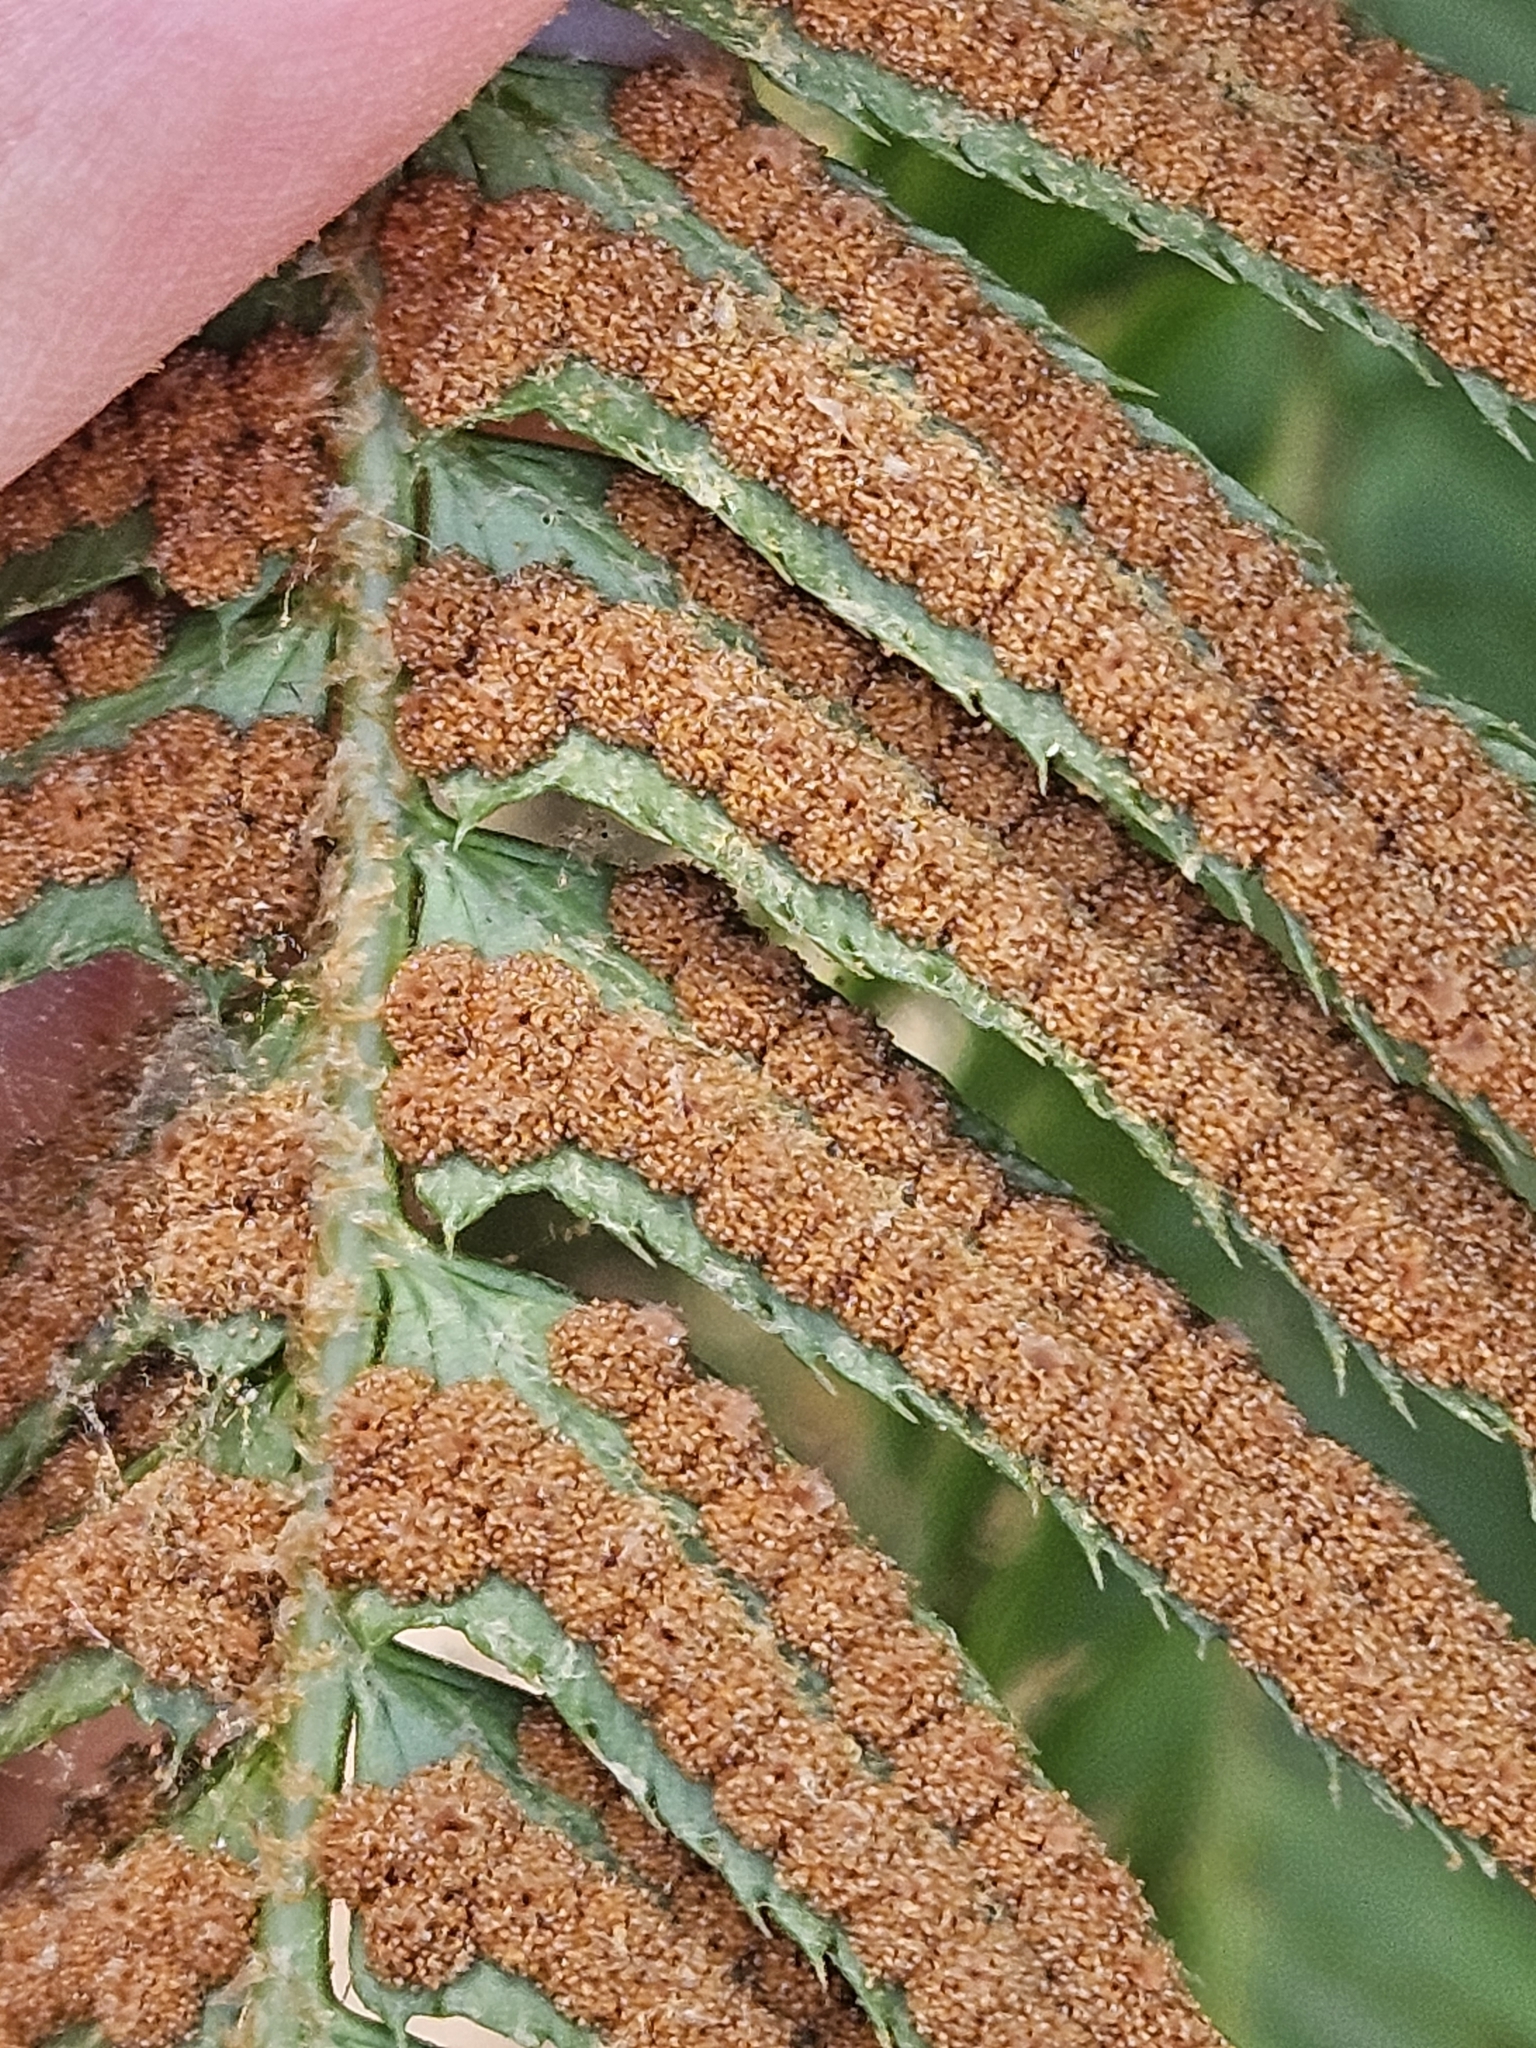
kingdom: Plantae
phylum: Tracheophyta
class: Polypodiopsida
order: Polypodiales
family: Dryopteridaceae
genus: Polystichum
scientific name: Polystichum munitum
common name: Western sword-fern
